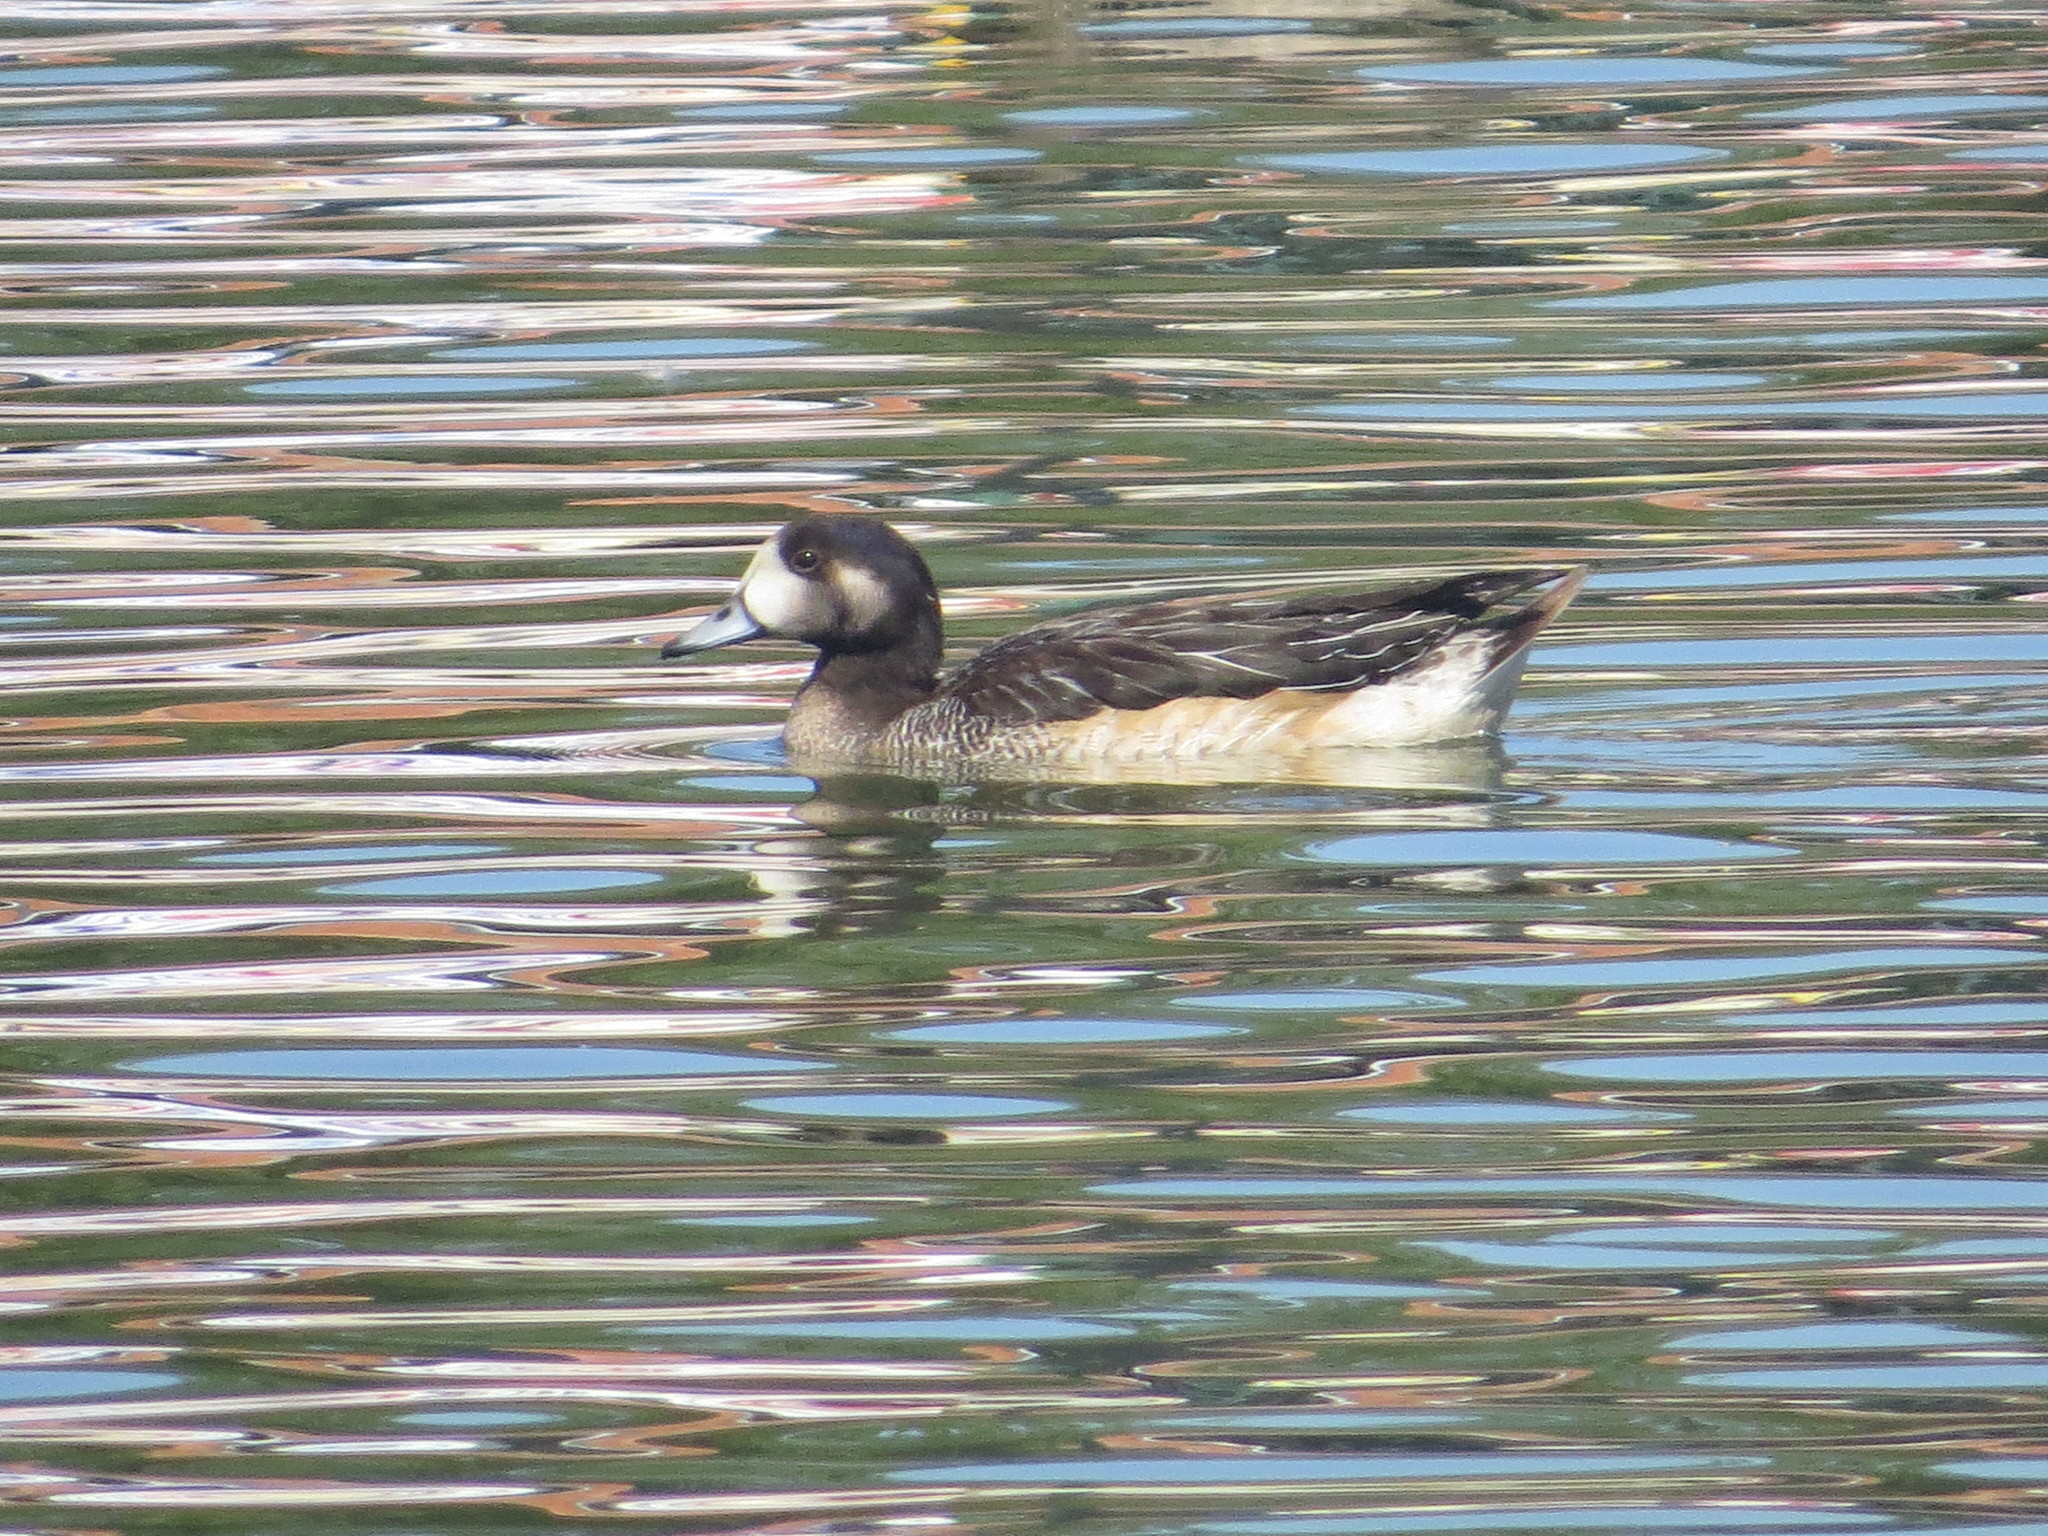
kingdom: Animalia
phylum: Chordata
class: Aves
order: Anseriformes
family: Anatidae
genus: Mareca
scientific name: Mareca sibilatrix
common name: Chiloe wigeon
